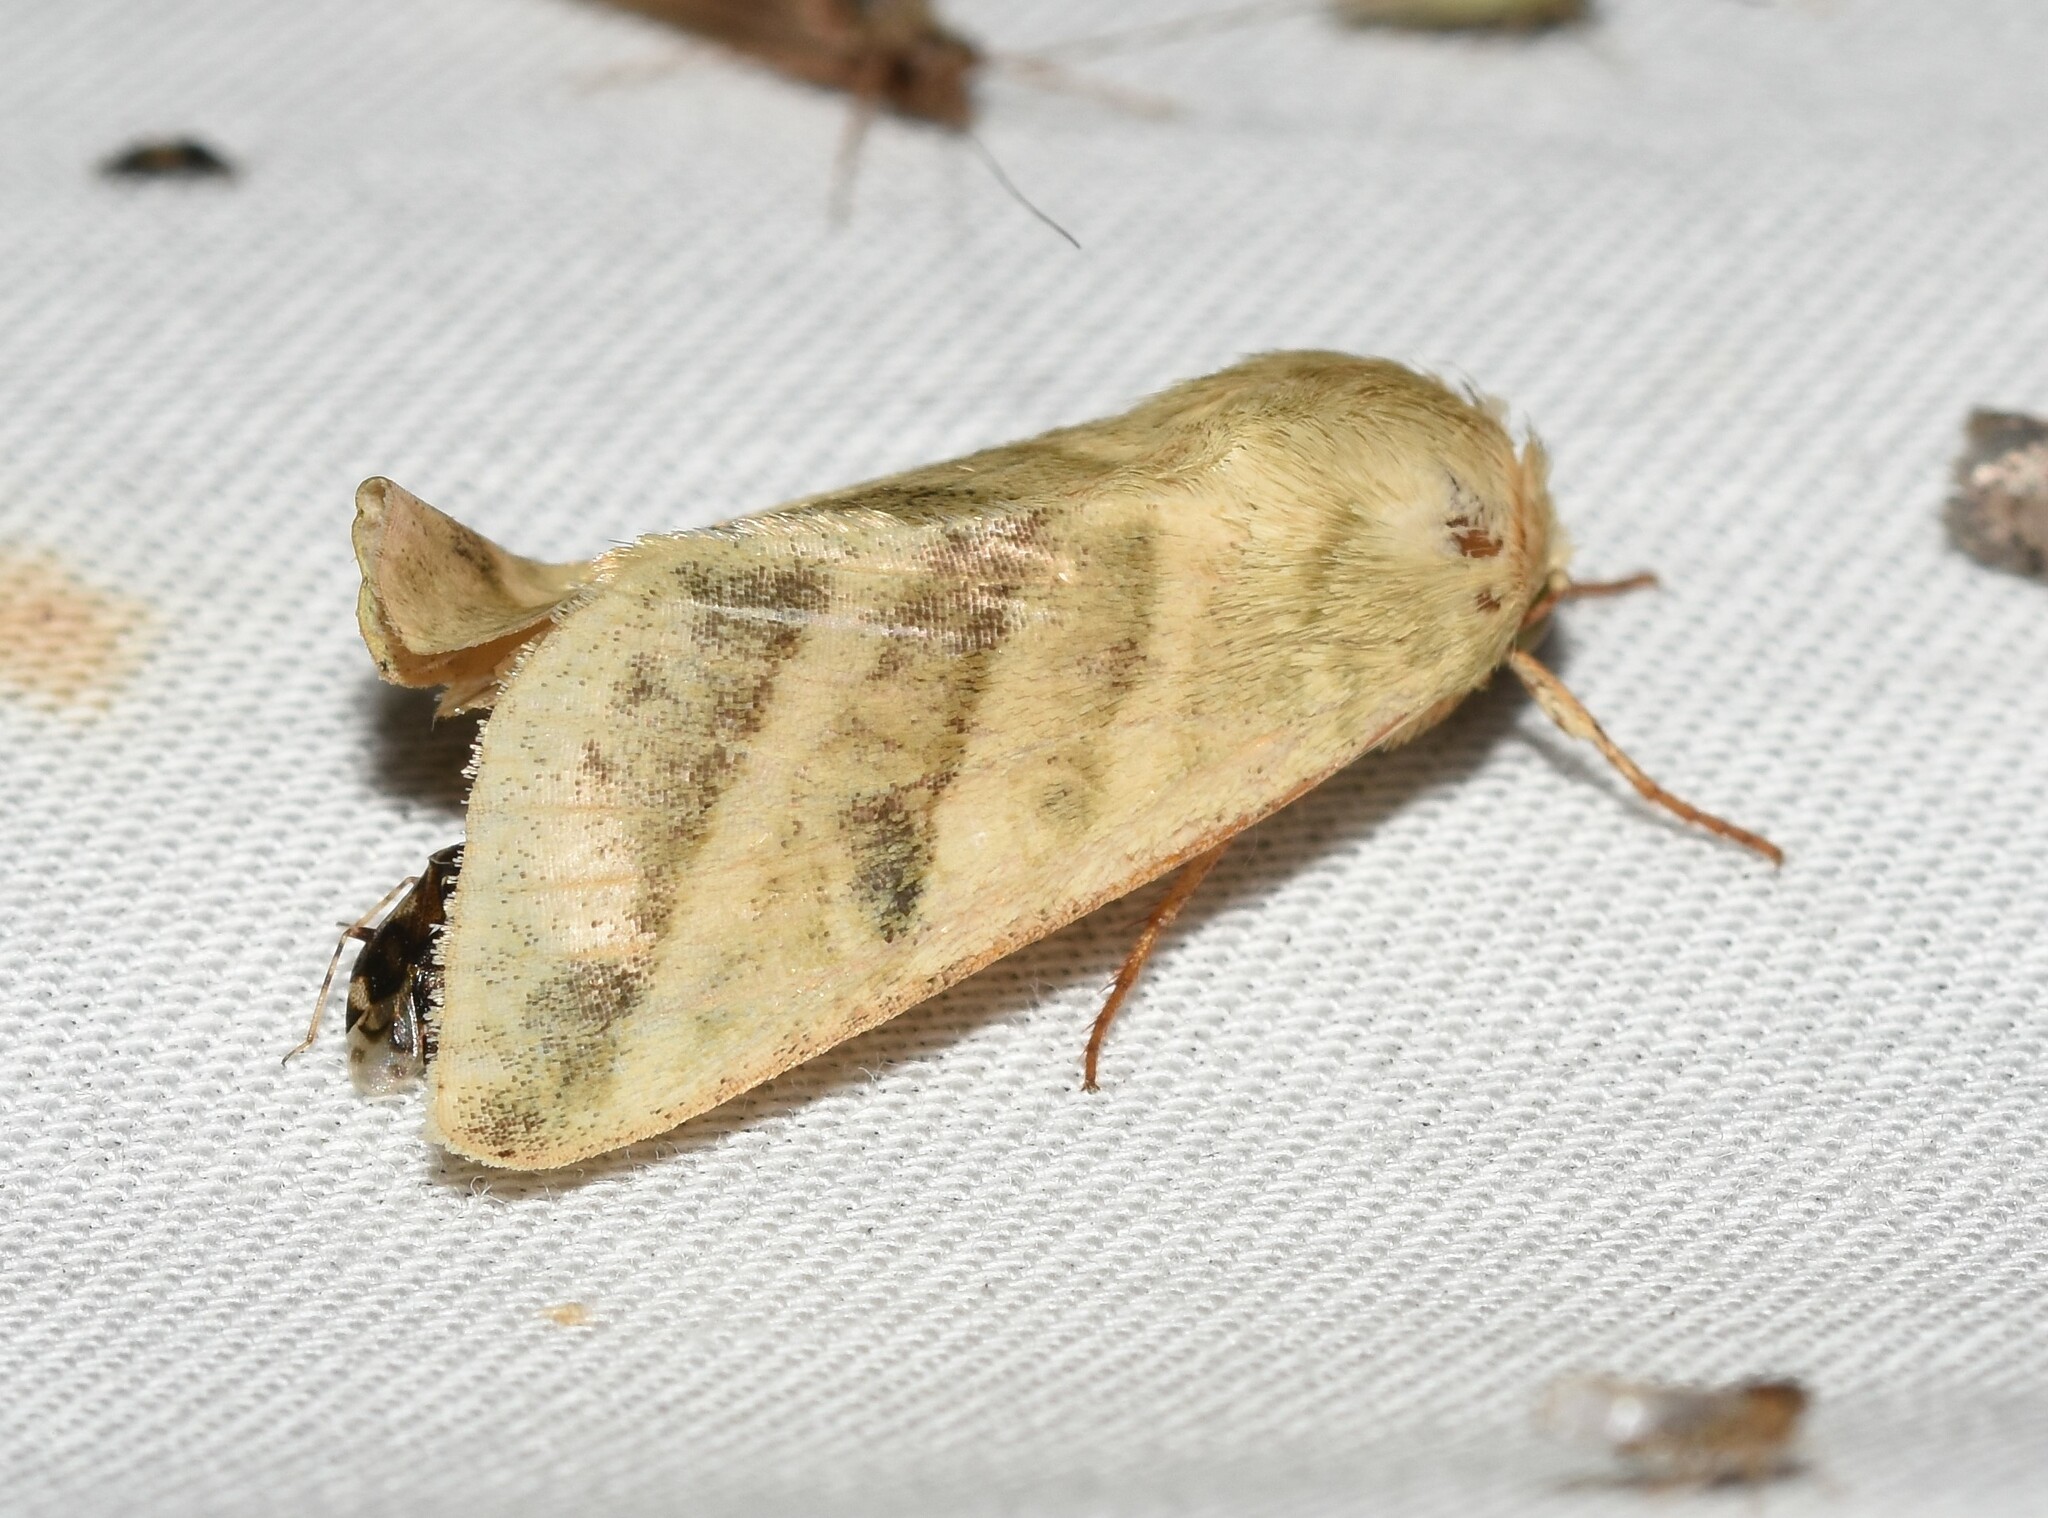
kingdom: Animalia
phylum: Arthropoda
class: Insecta
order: Lepidoptera
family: Noctuidae
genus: Chloridea
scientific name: Chloridea virescens
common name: Tobacco budworm
